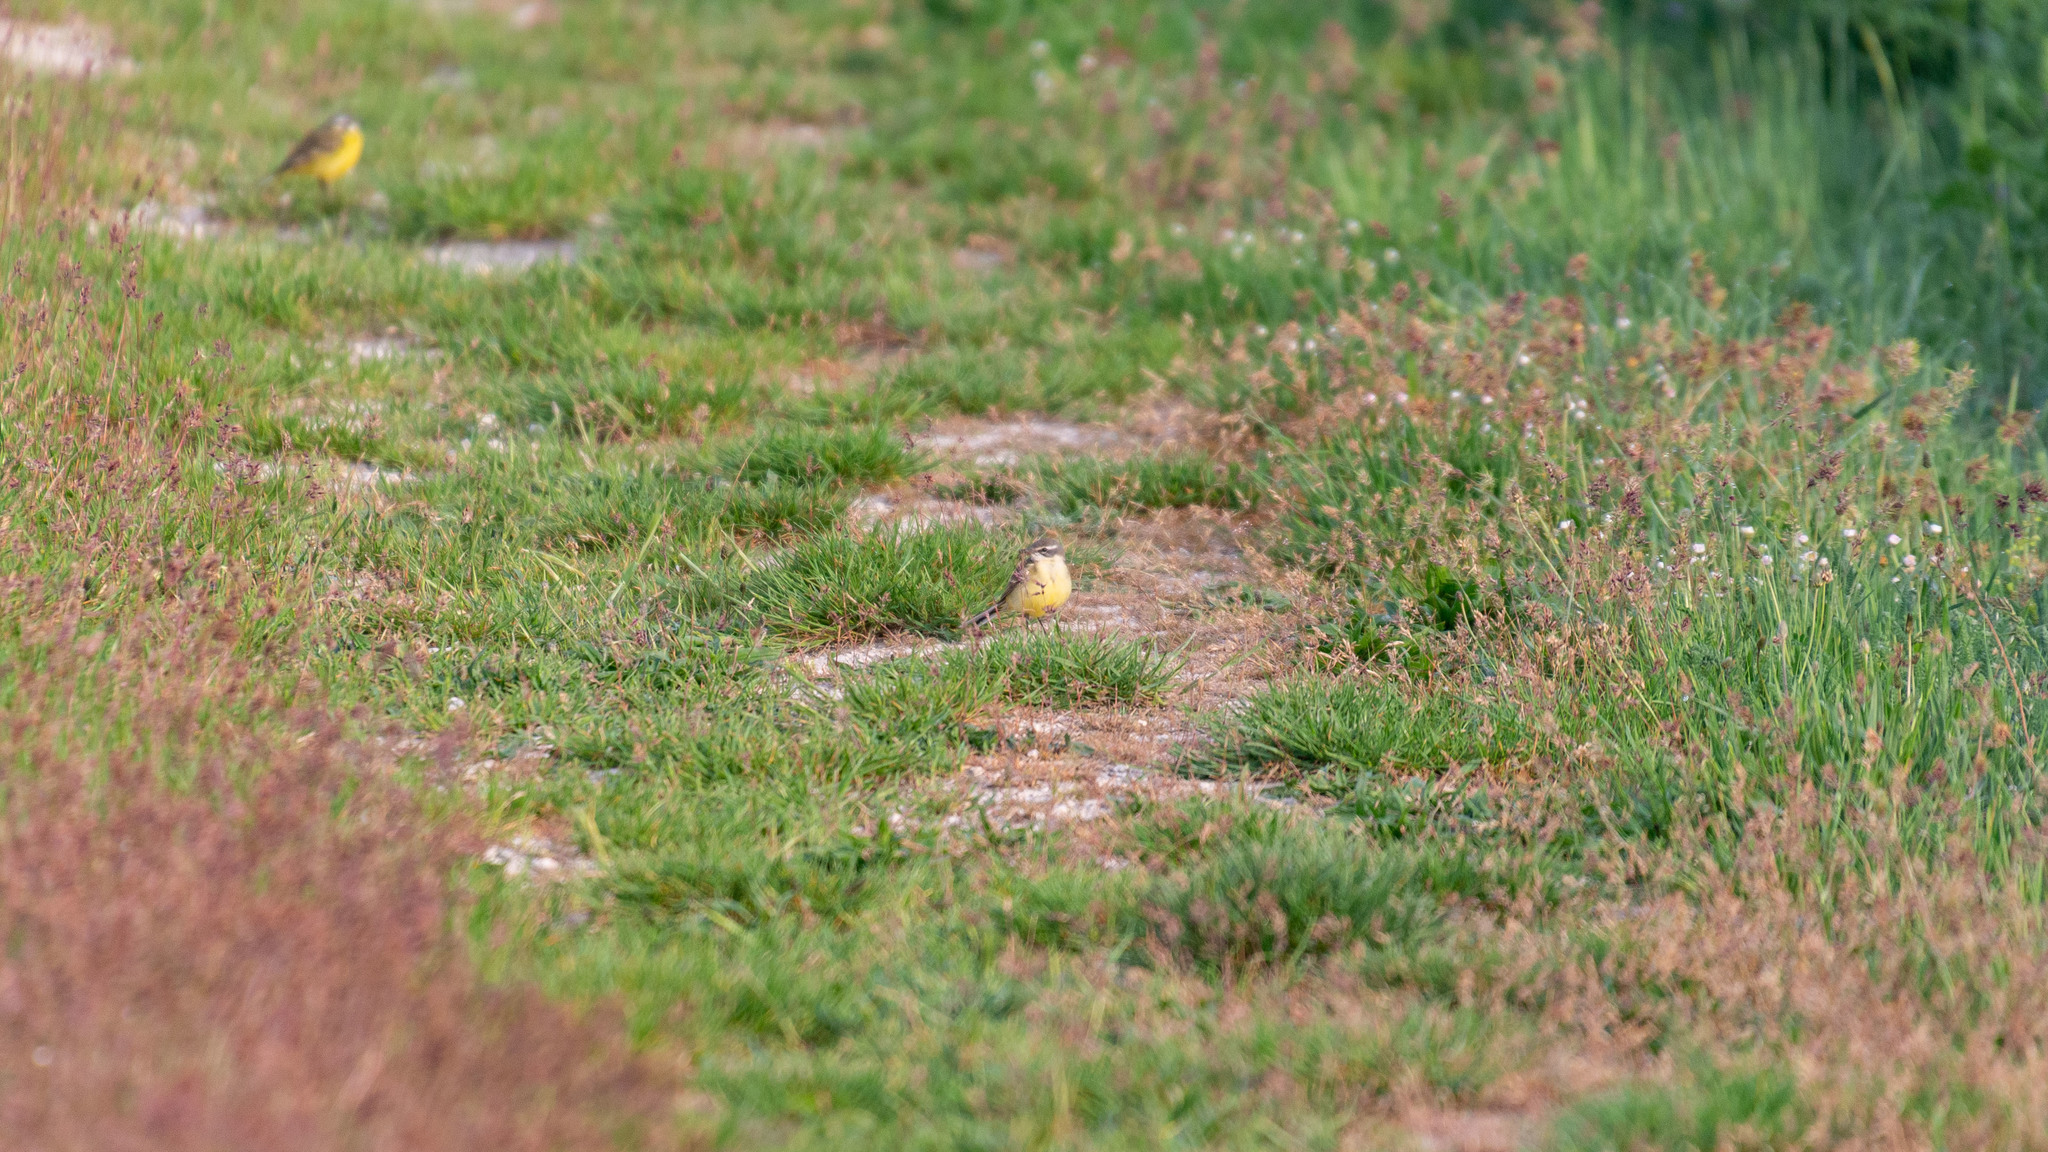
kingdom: Animalia
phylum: Chordata
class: Aves
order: Passeriformes
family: Motacillidae
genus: Motacilla
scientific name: Motacilla flava
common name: Western yellow wagtail
